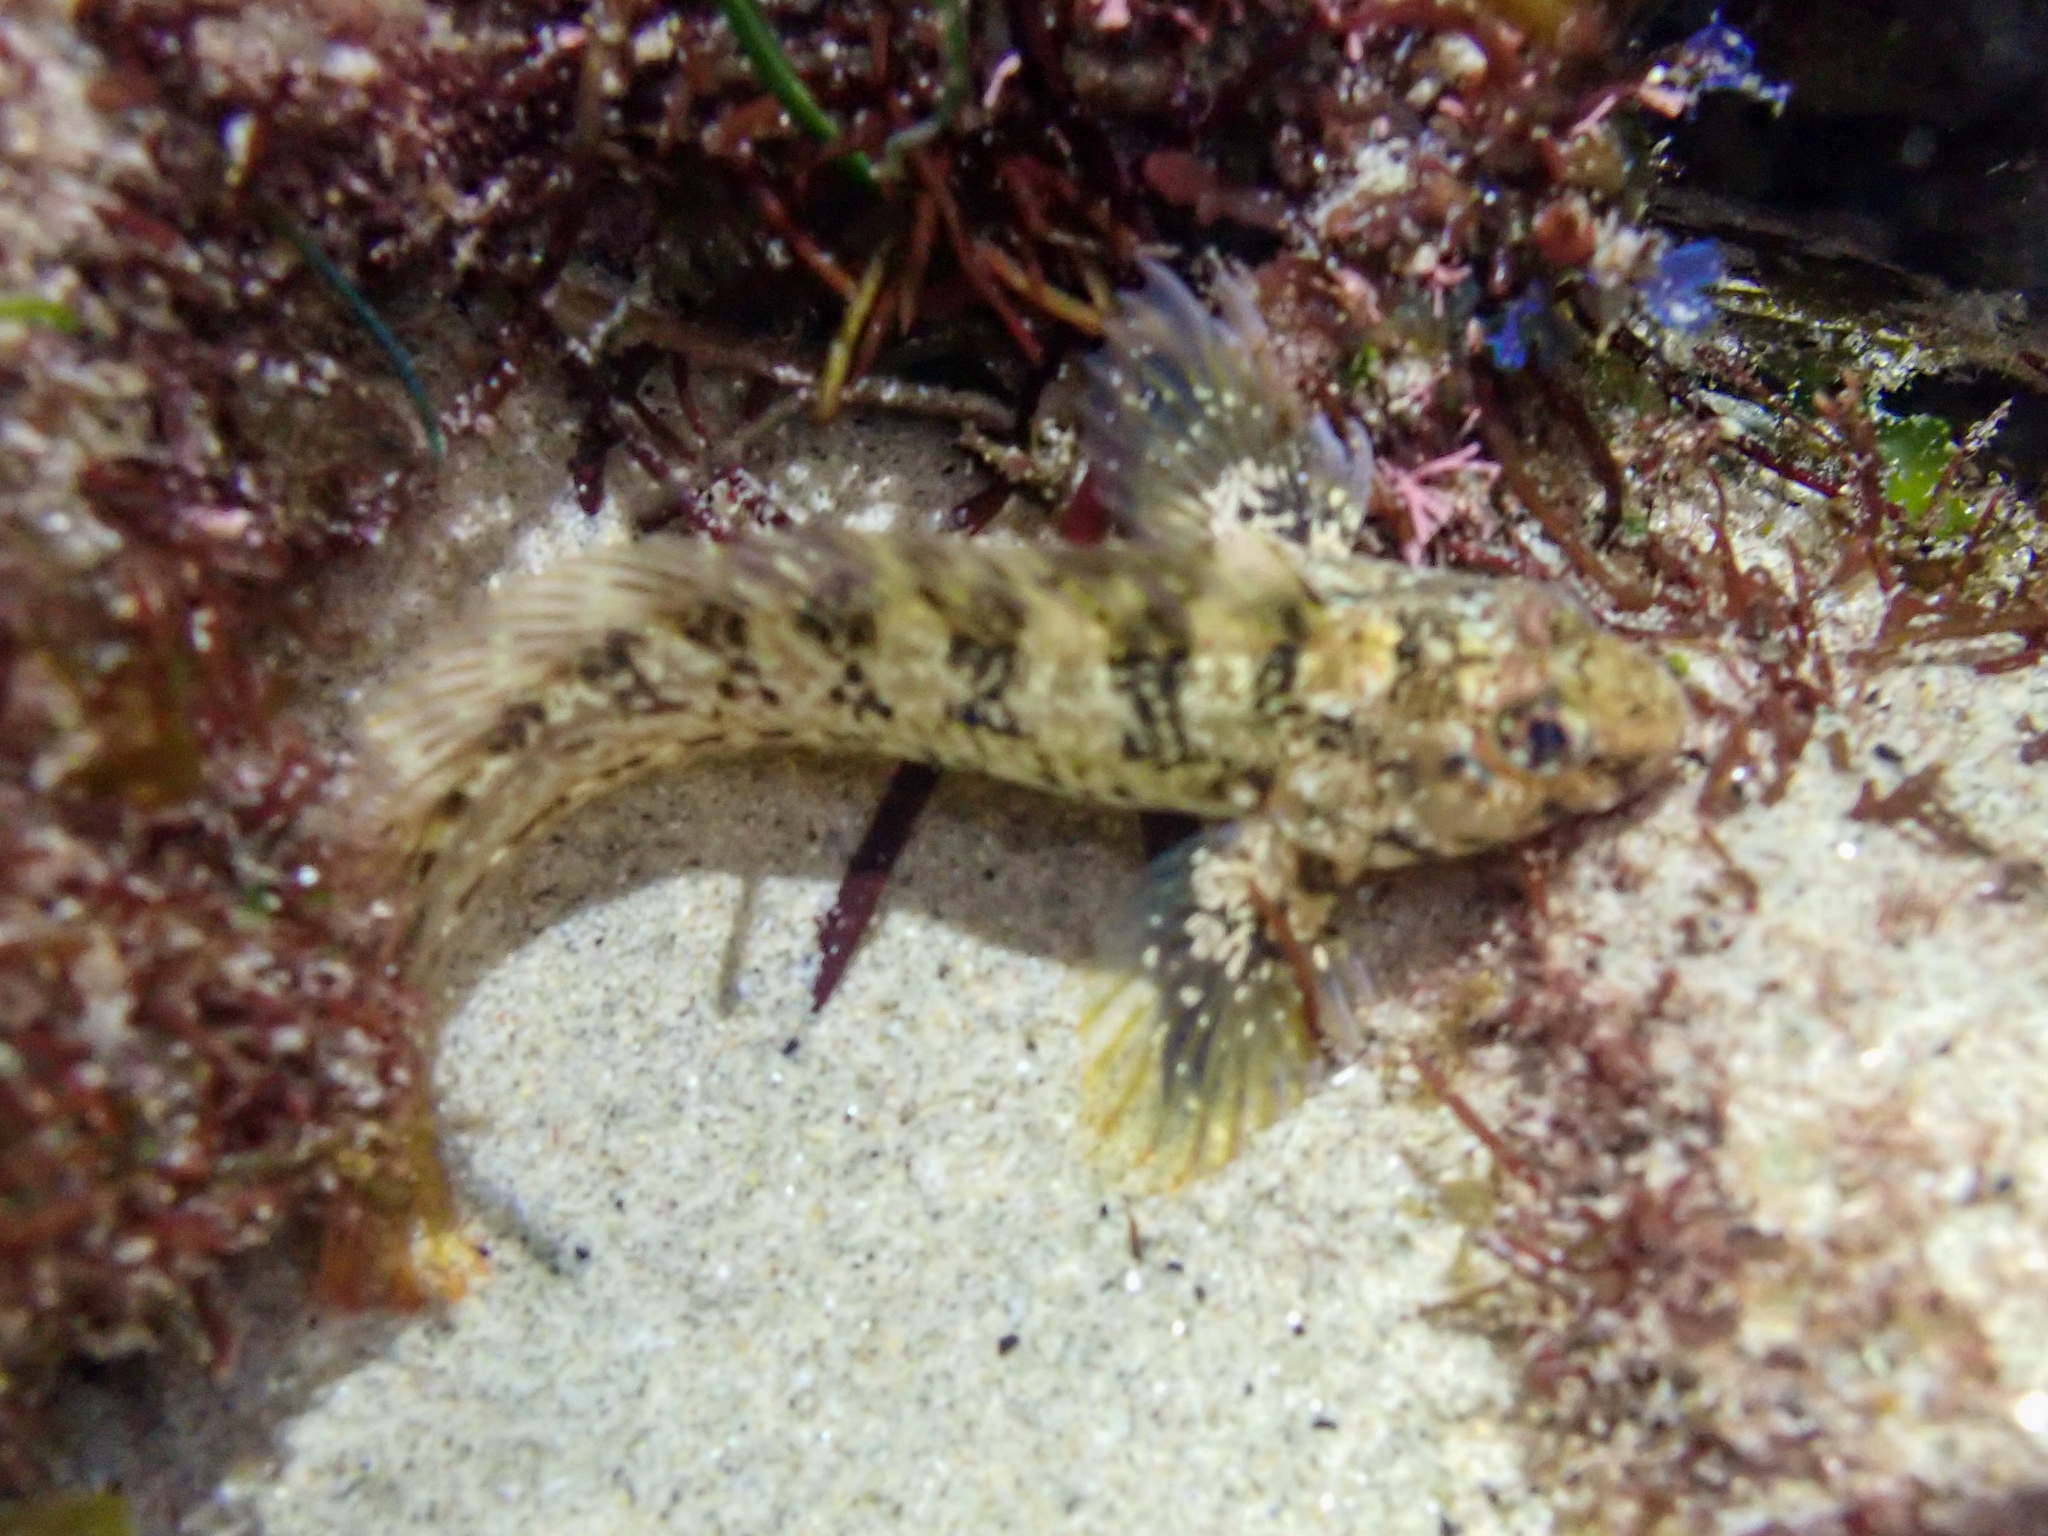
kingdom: Animalia
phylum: Chordata
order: Perciformes
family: Blenniidae
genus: Hypsoblennius
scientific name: Hypsoblennius gilberti
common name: Notchbrow blenny
